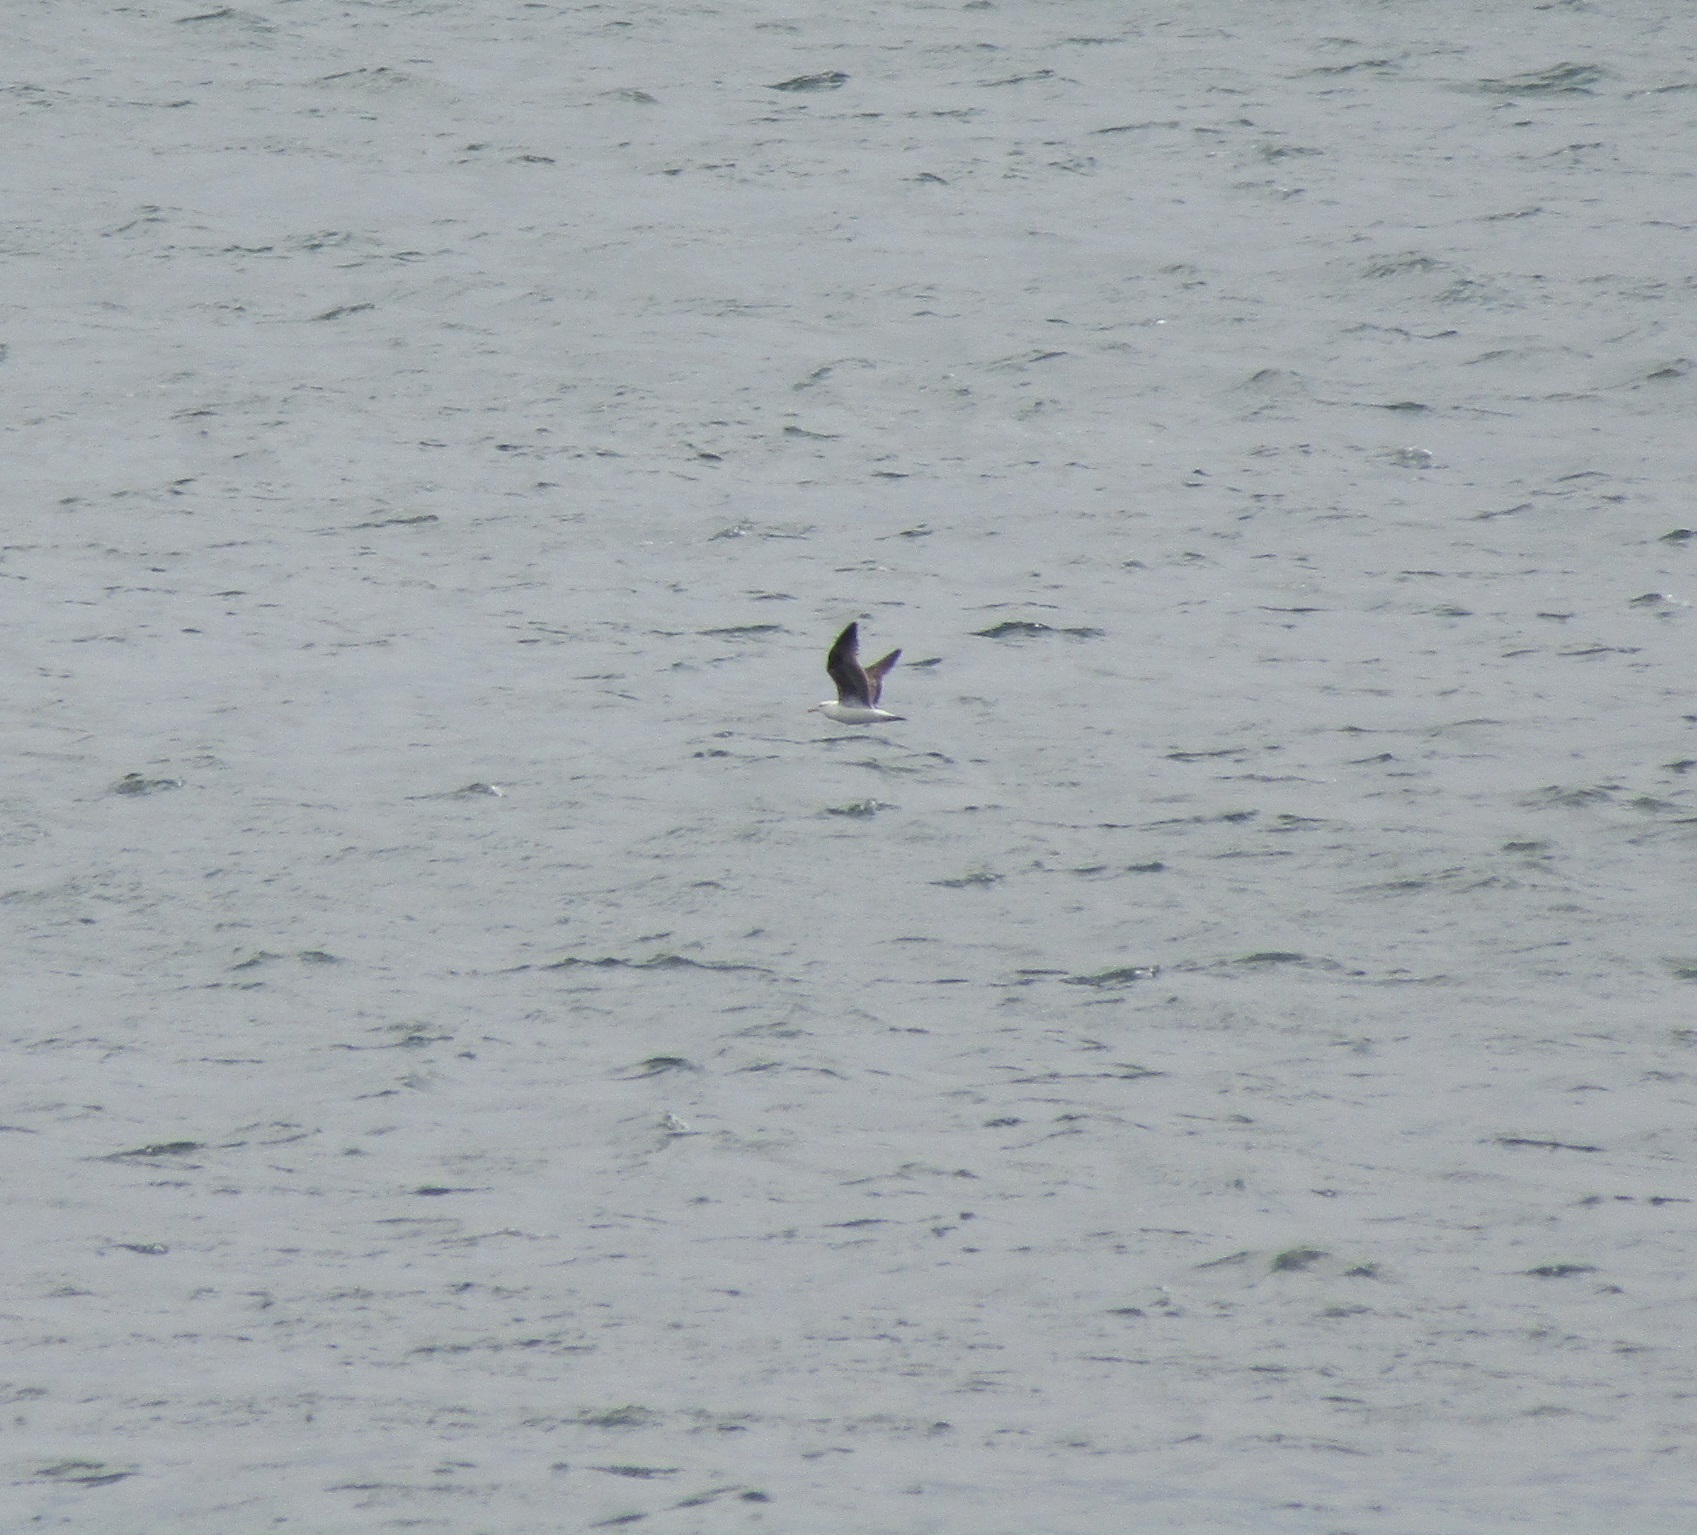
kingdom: Animalia
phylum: Chordata
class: Aves
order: Charadriiformes
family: Laridae
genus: Larus
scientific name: Larus dominicanus
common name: Kelp gull
